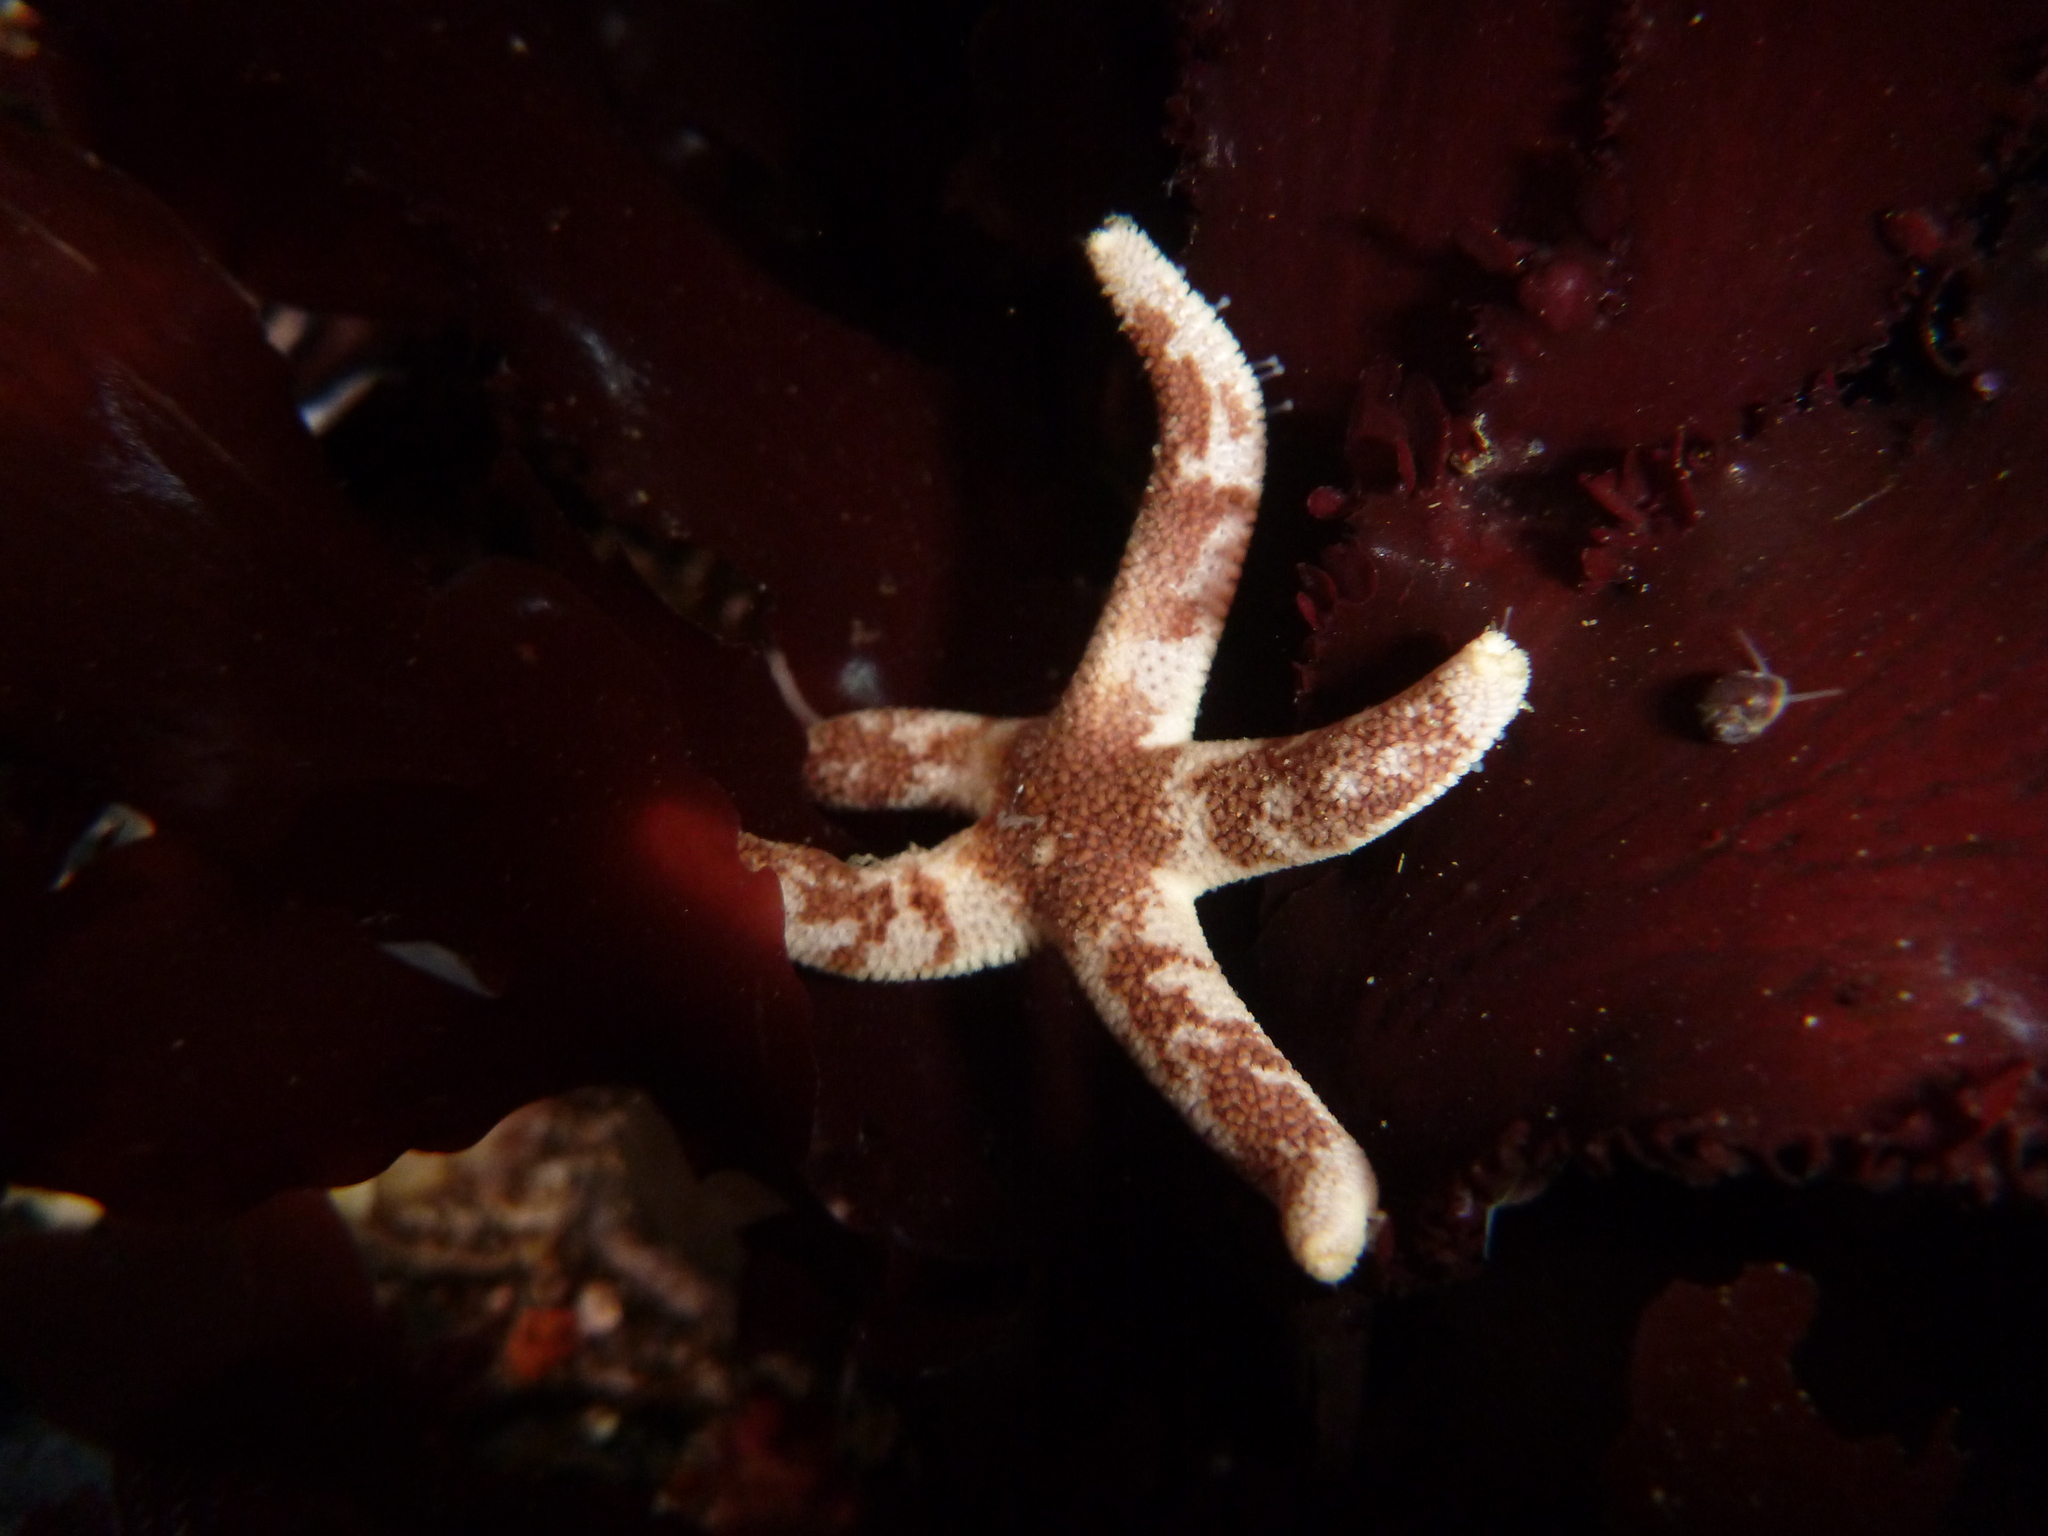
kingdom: Animalia
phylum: Echinodermata
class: Asteroidea
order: Spinulosida
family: Echinasteridae
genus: Henricia
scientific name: Henricia pumila
